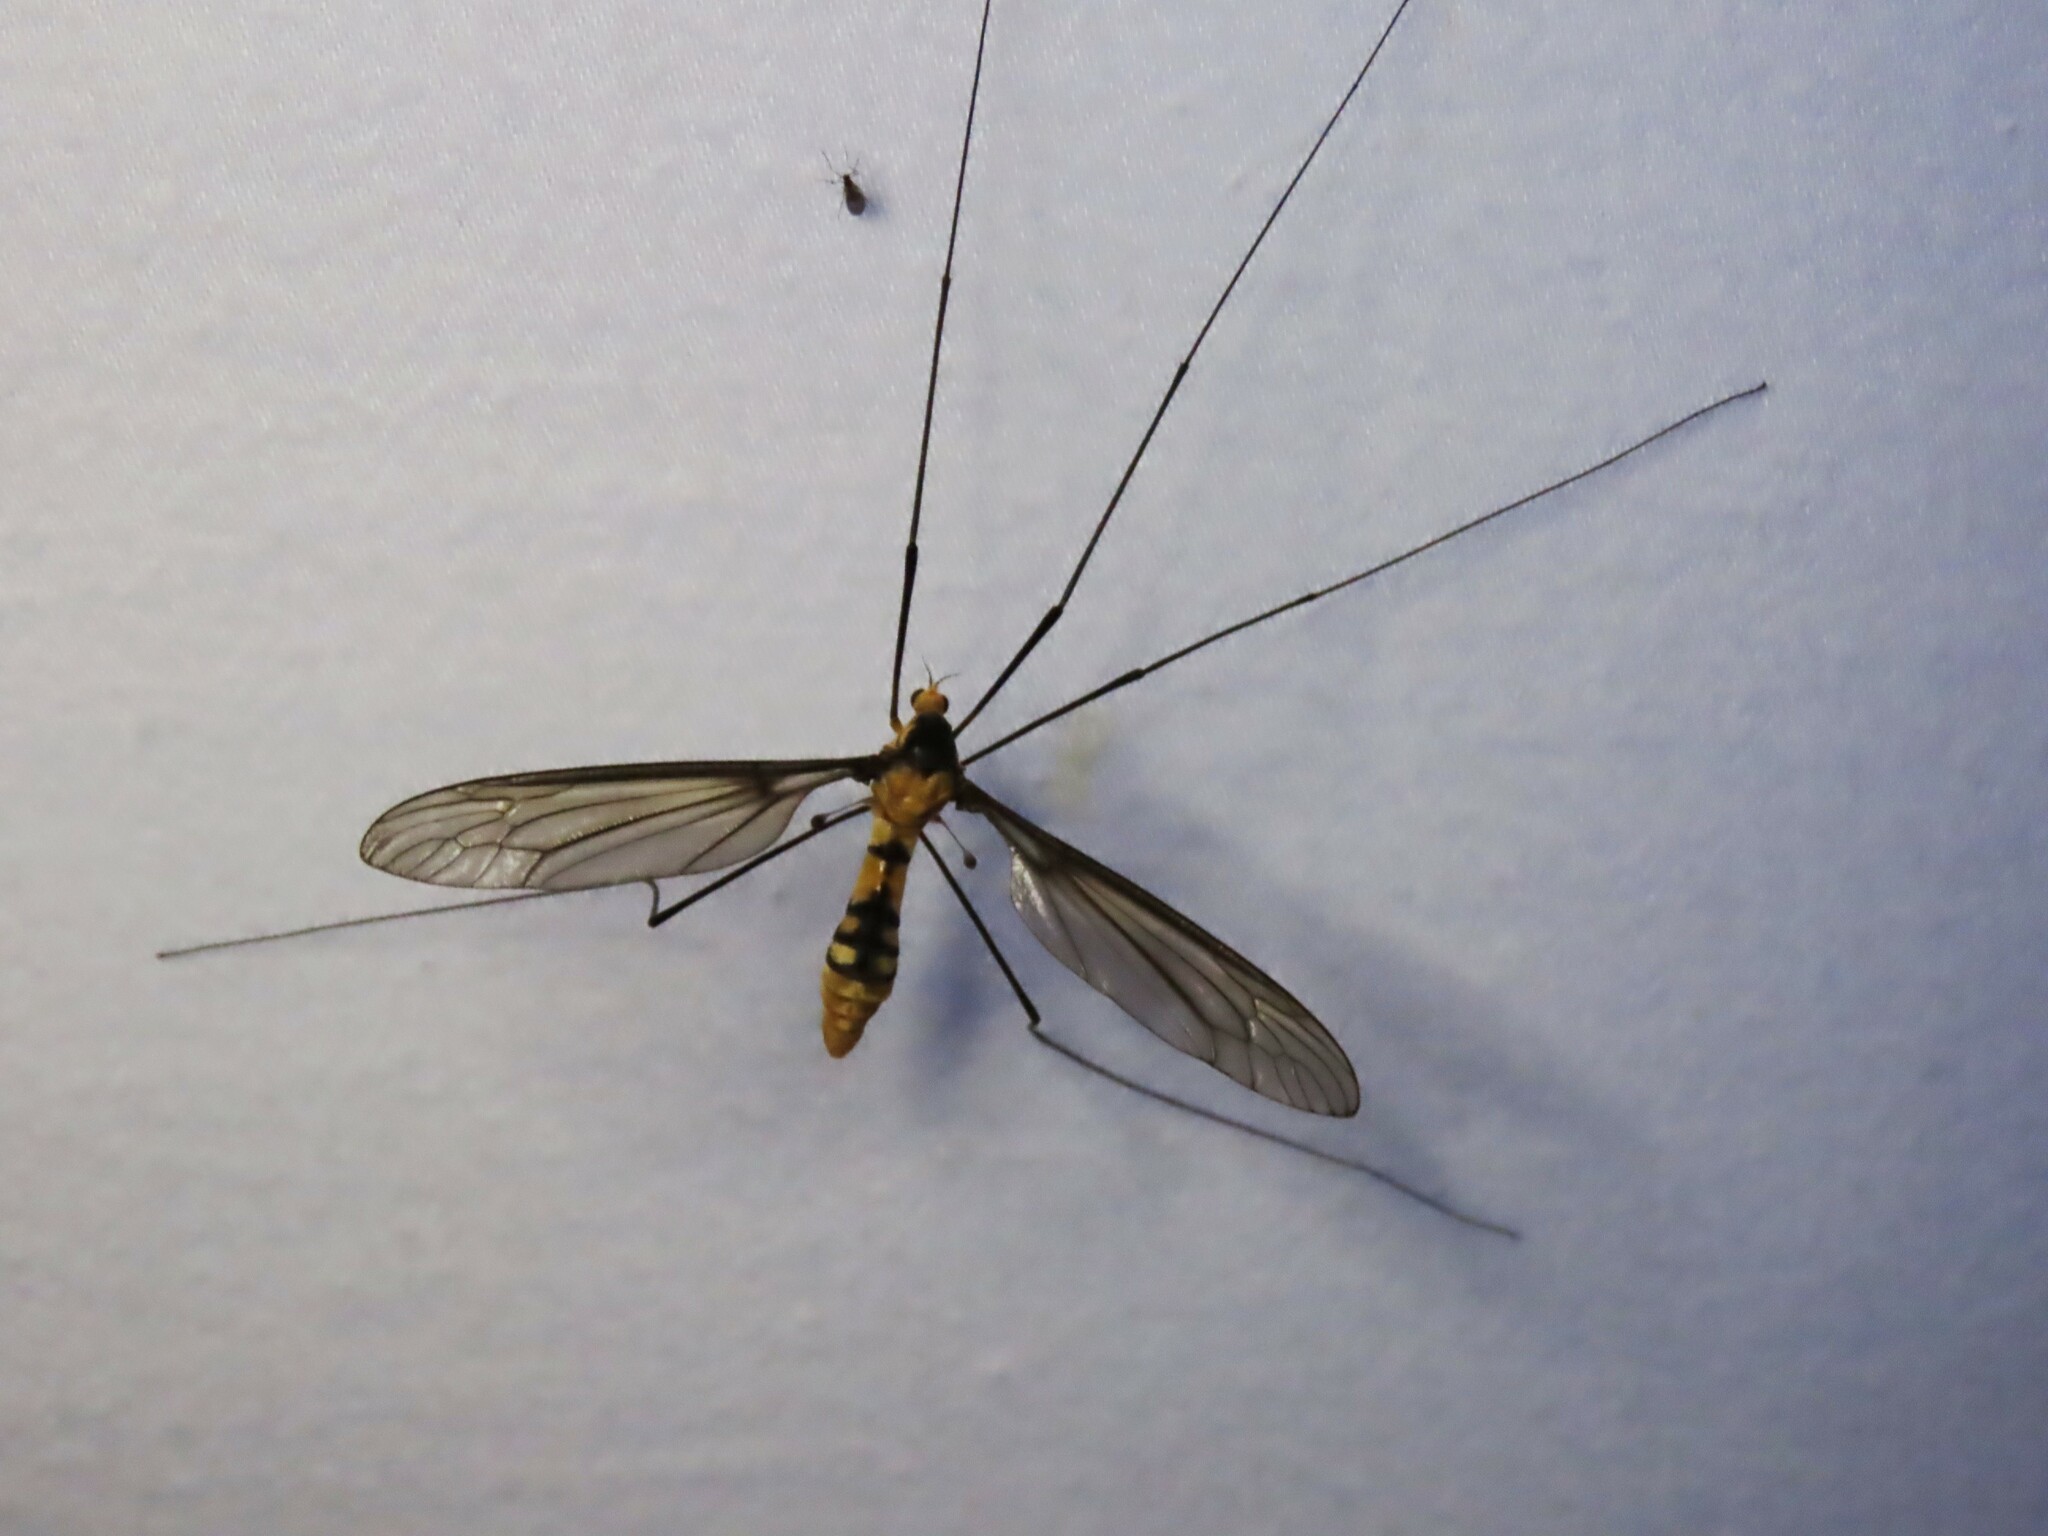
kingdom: Animalia
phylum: Arthropoda
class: Insecta
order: Diptera
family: Tipulidae
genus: Leptotarsus
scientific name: Leptotarsus clavatus
